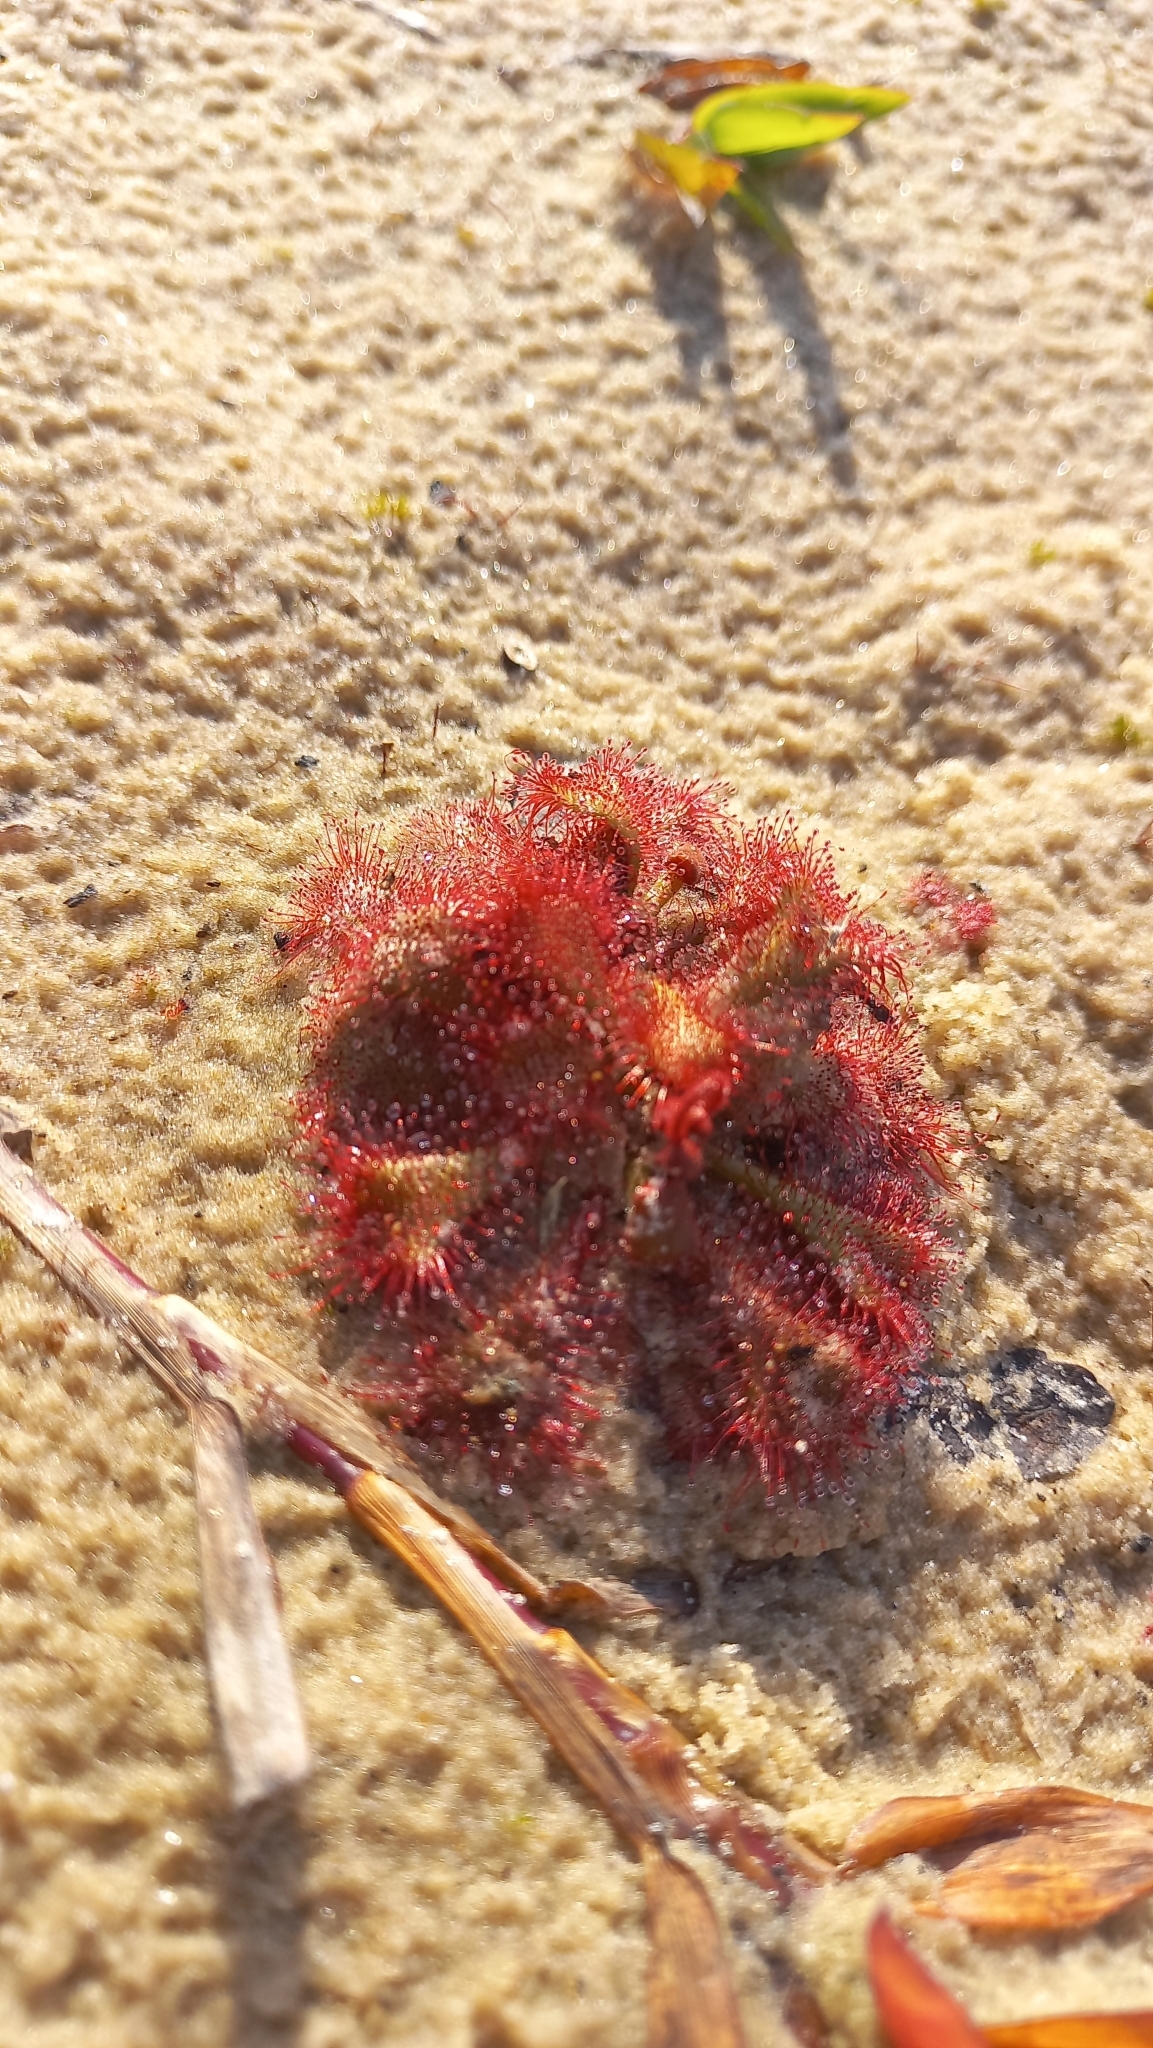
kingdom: Plantae
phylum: Tracheophyta
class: Magnoliopsida
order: Caryophyllales
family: Droseraceae
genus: Drosera
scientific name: Drosera brevifolia
